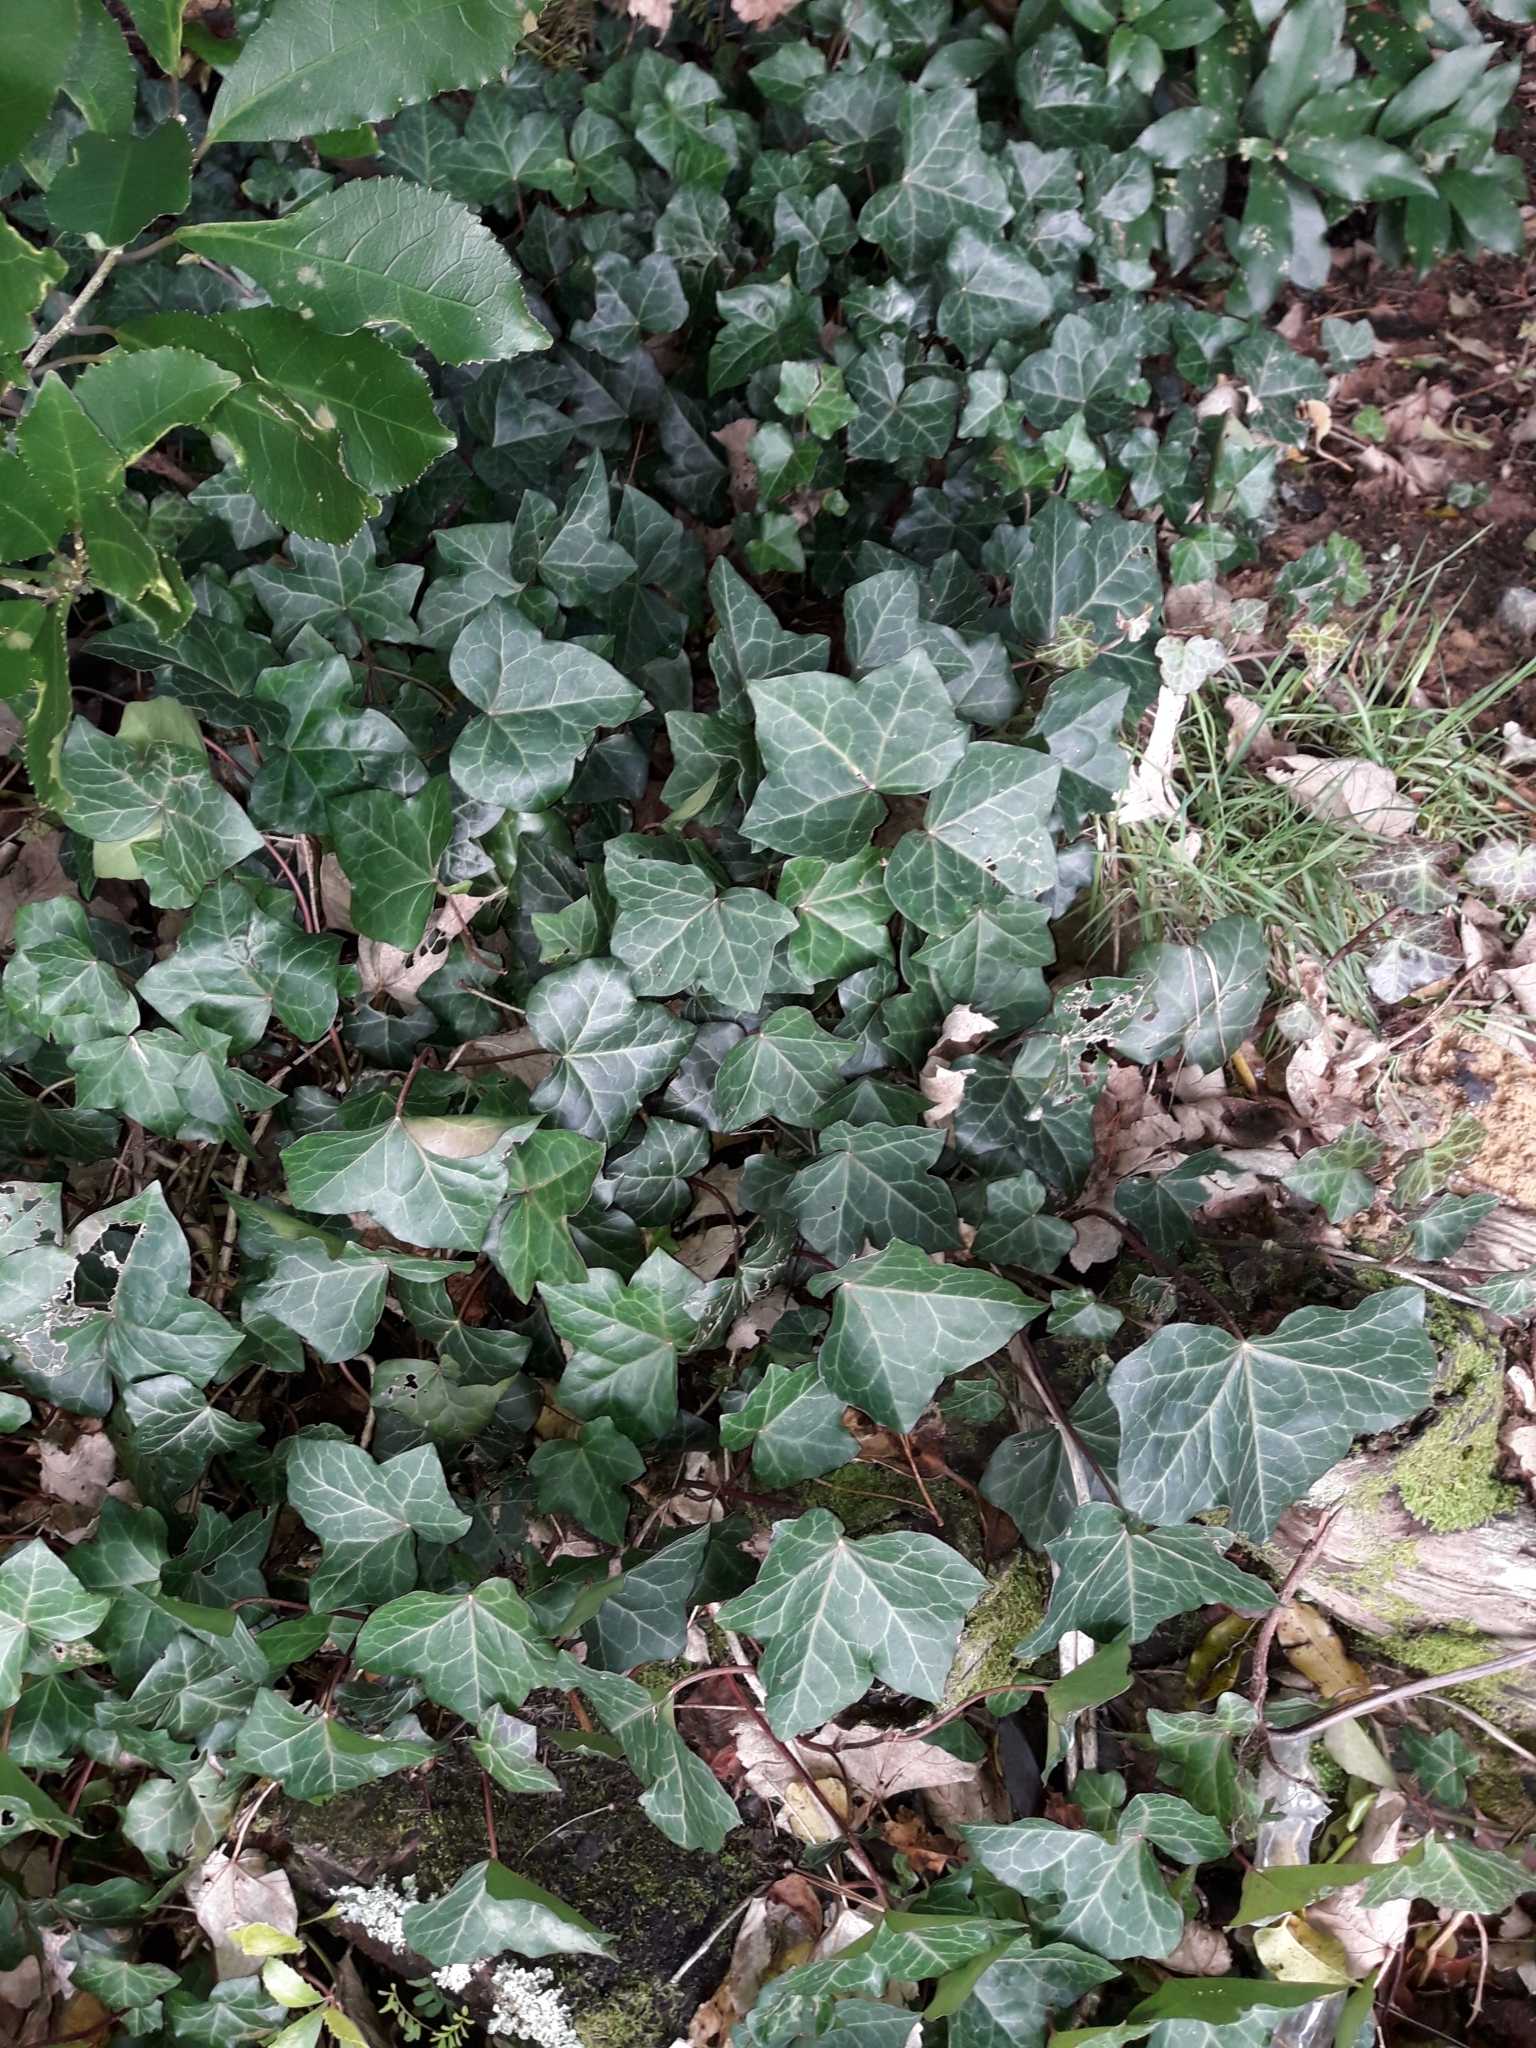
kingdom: Plantae
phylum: Tracheophyta
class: Magnoliopsida
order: Apiales
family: Araliaceae
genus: Hedera
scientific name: Hedera helix
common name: Ivy
